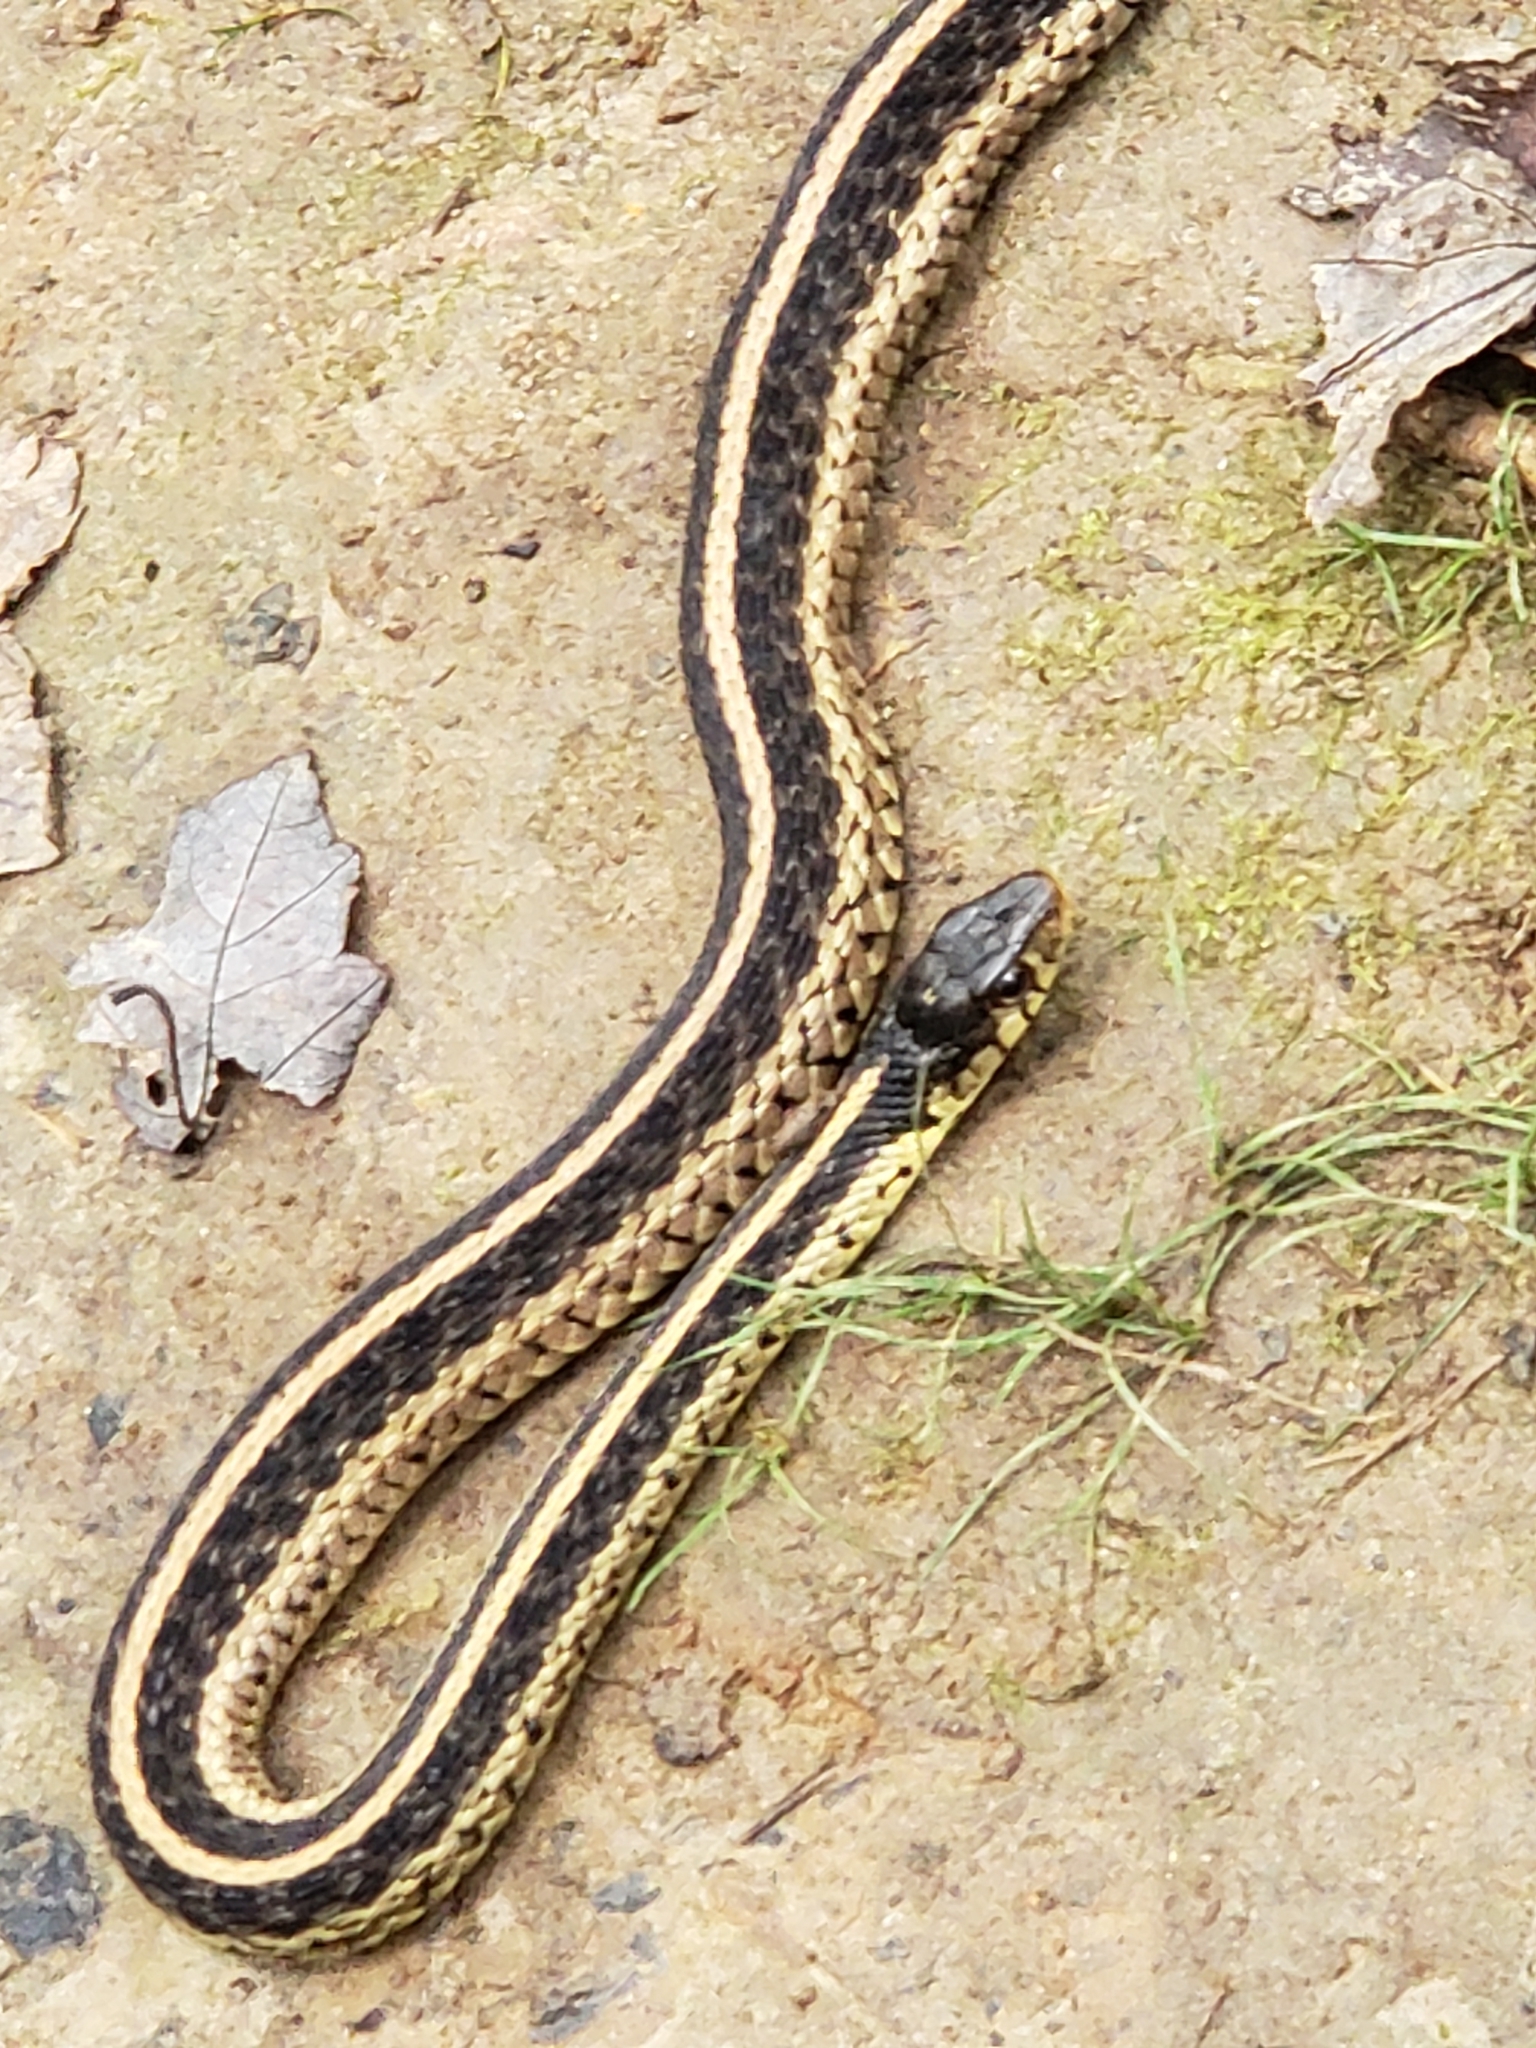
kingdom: Animalia
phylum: Chordata
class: Squamata
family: Colubridae
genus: Thamnophis
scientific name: Thamnophis sirtalis
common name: Common garter snake
